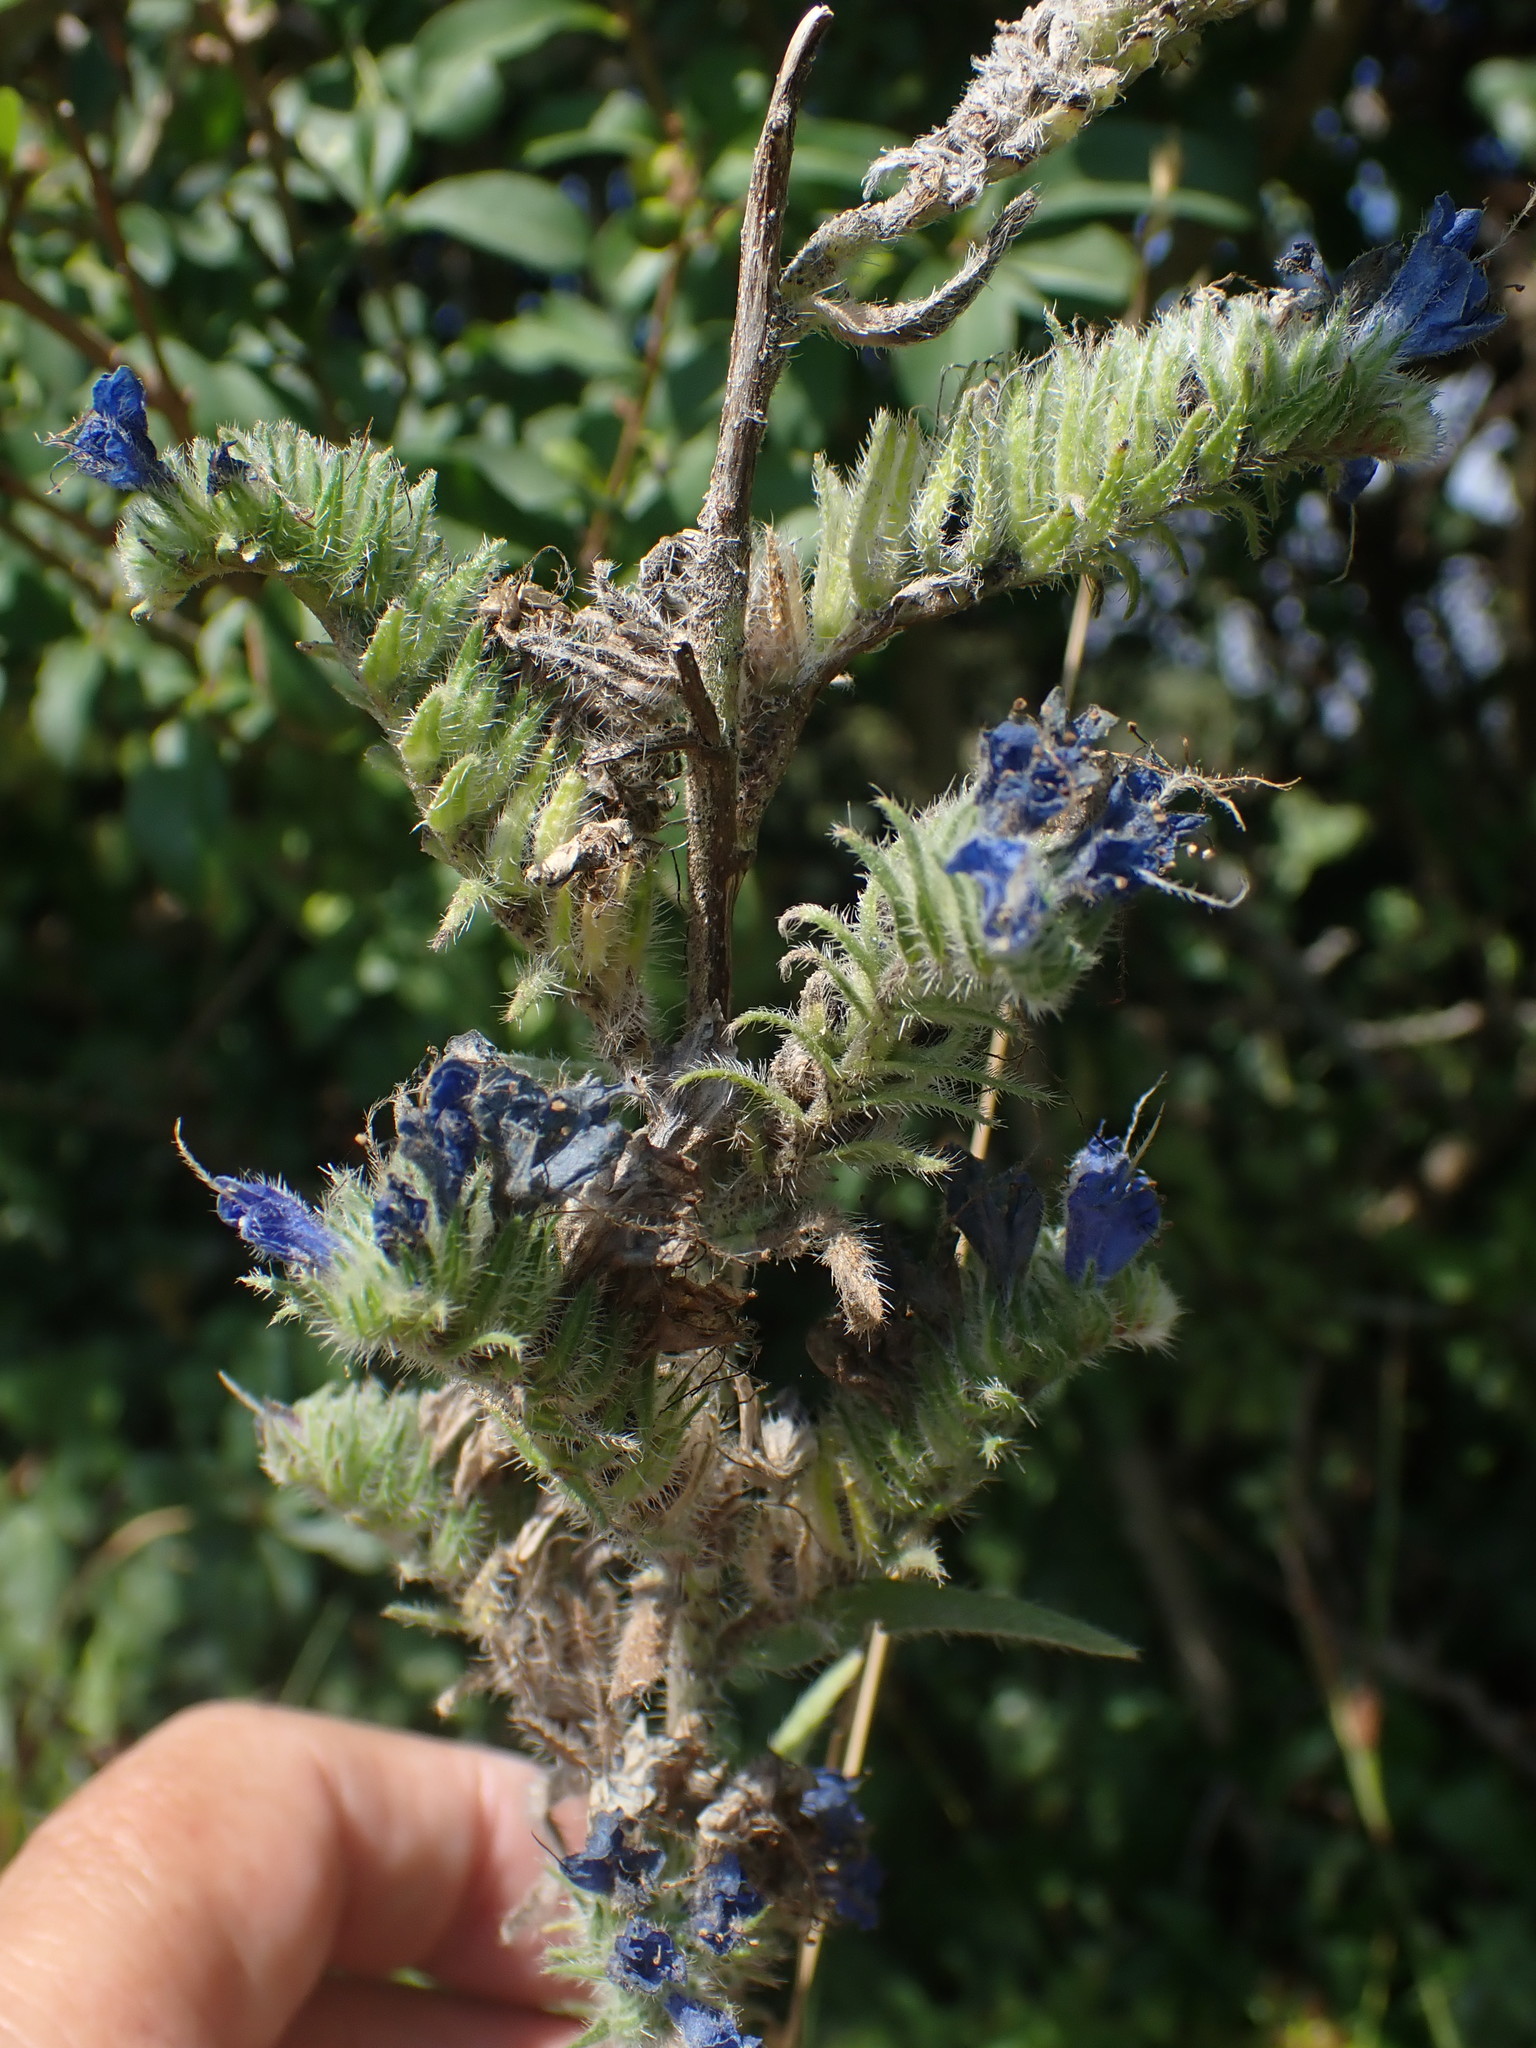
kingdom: Plantae
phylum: Tracheophyta
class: Magnoliopsida
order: Boraginales
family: Boraginaceae
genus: Echium
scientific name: Echium vulgare
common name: Common viper's bugloss
